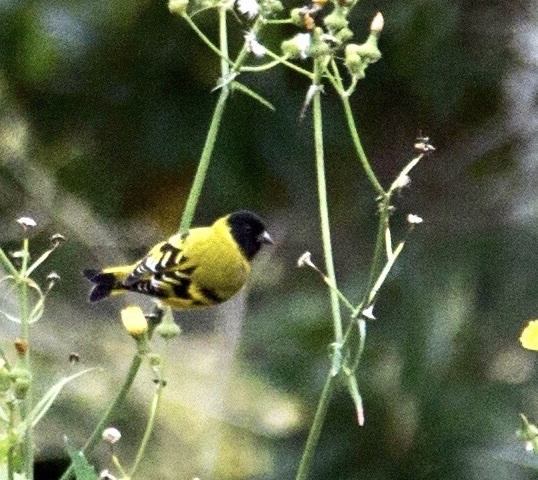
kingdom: Animalia
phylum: Chordata
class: Aves
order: Passeriformes
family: Fringillidae
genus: Spinus
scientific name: Spinus magellanicus
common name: Hooded siskin
